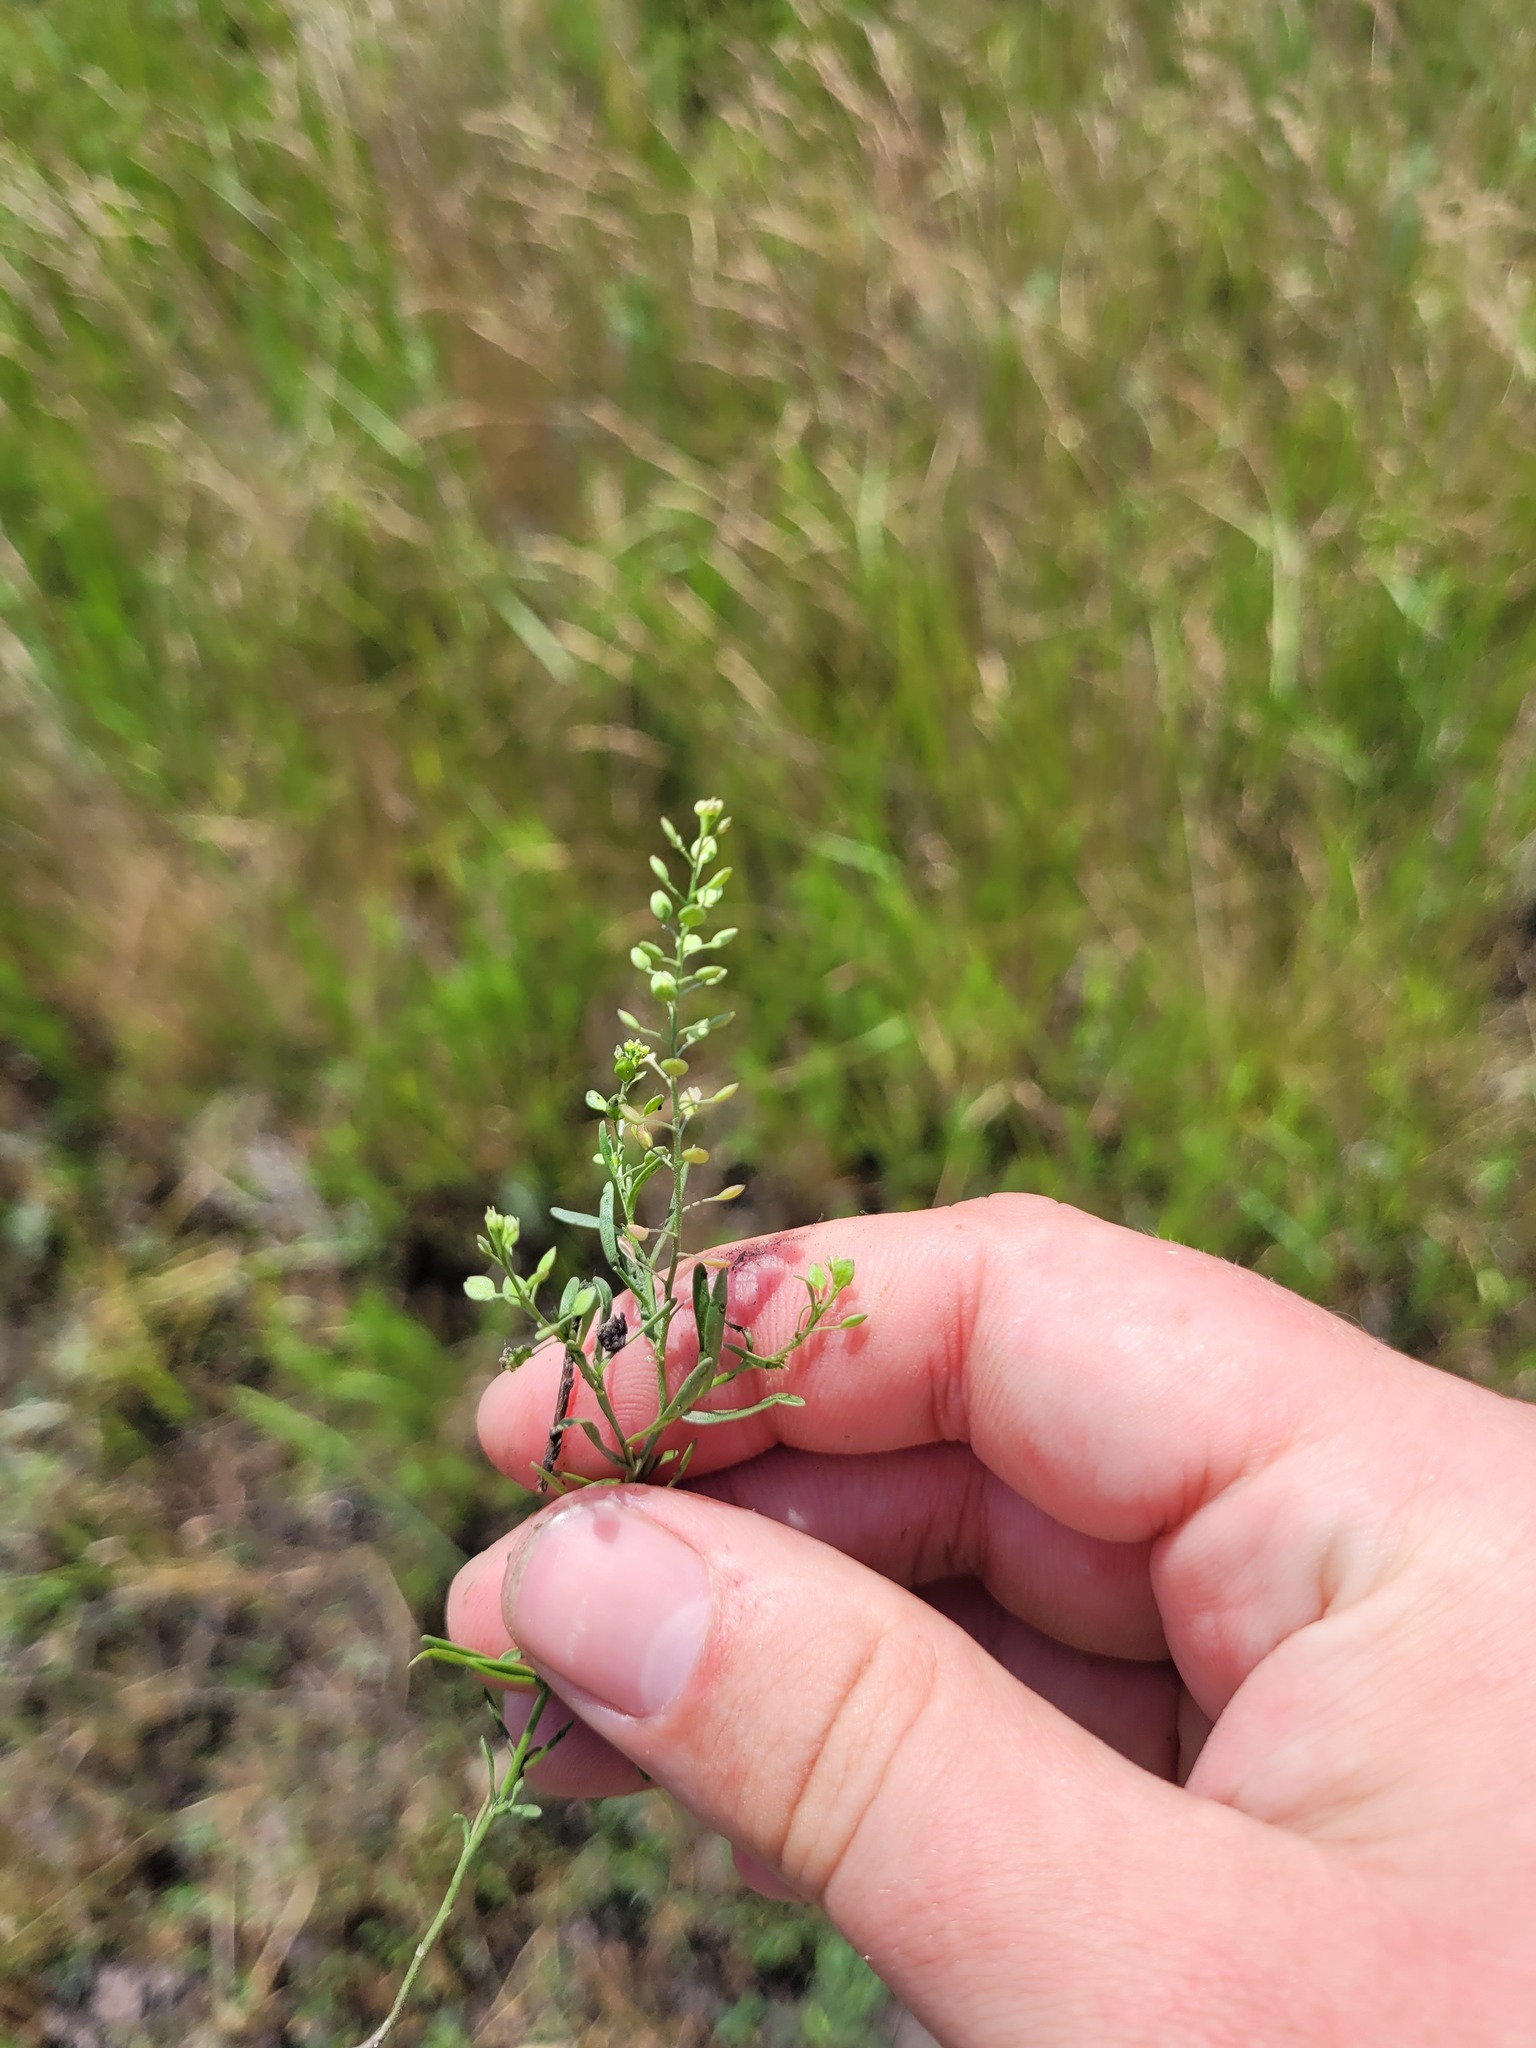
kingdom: Plantae
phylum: Tracheophyta
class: Magnoliopsida
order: Brassicales
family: Brassicaceae
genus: Lepidium
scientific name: Lepidium ruderale
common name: Narrow-leaved pepperwort
